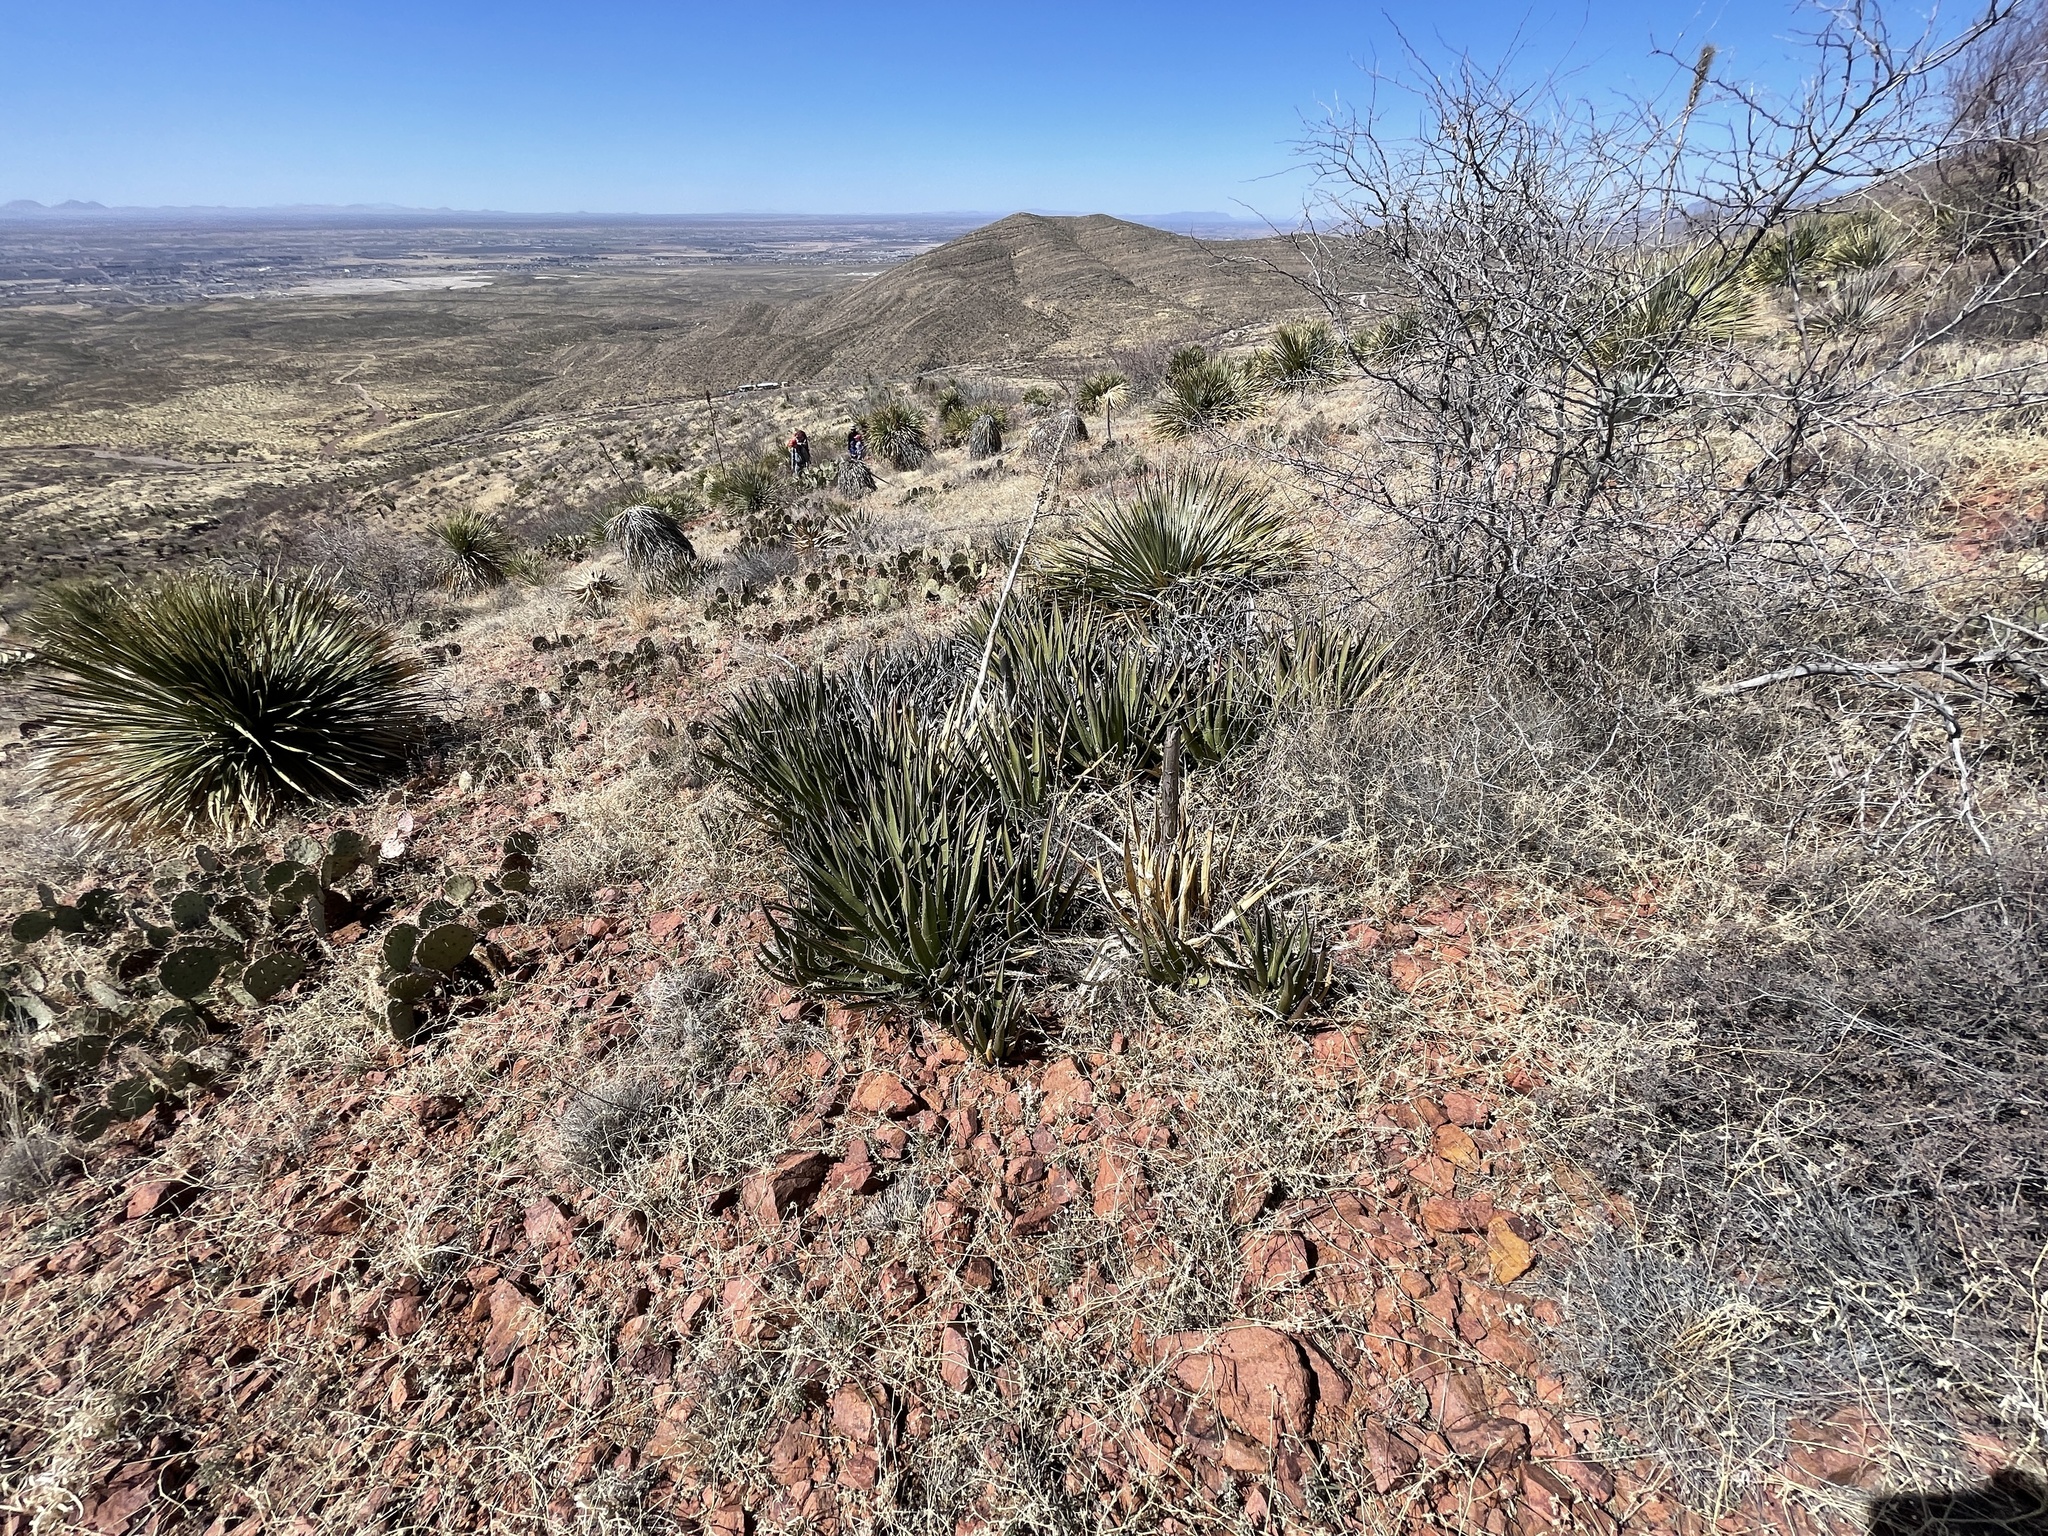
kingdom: Plantae
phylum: Tracheophyta
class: Liliopsida
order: Asparagales
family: Asparagaceae
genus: Agave
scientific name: Agave lechuguilla
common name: Lecheguilla agave
